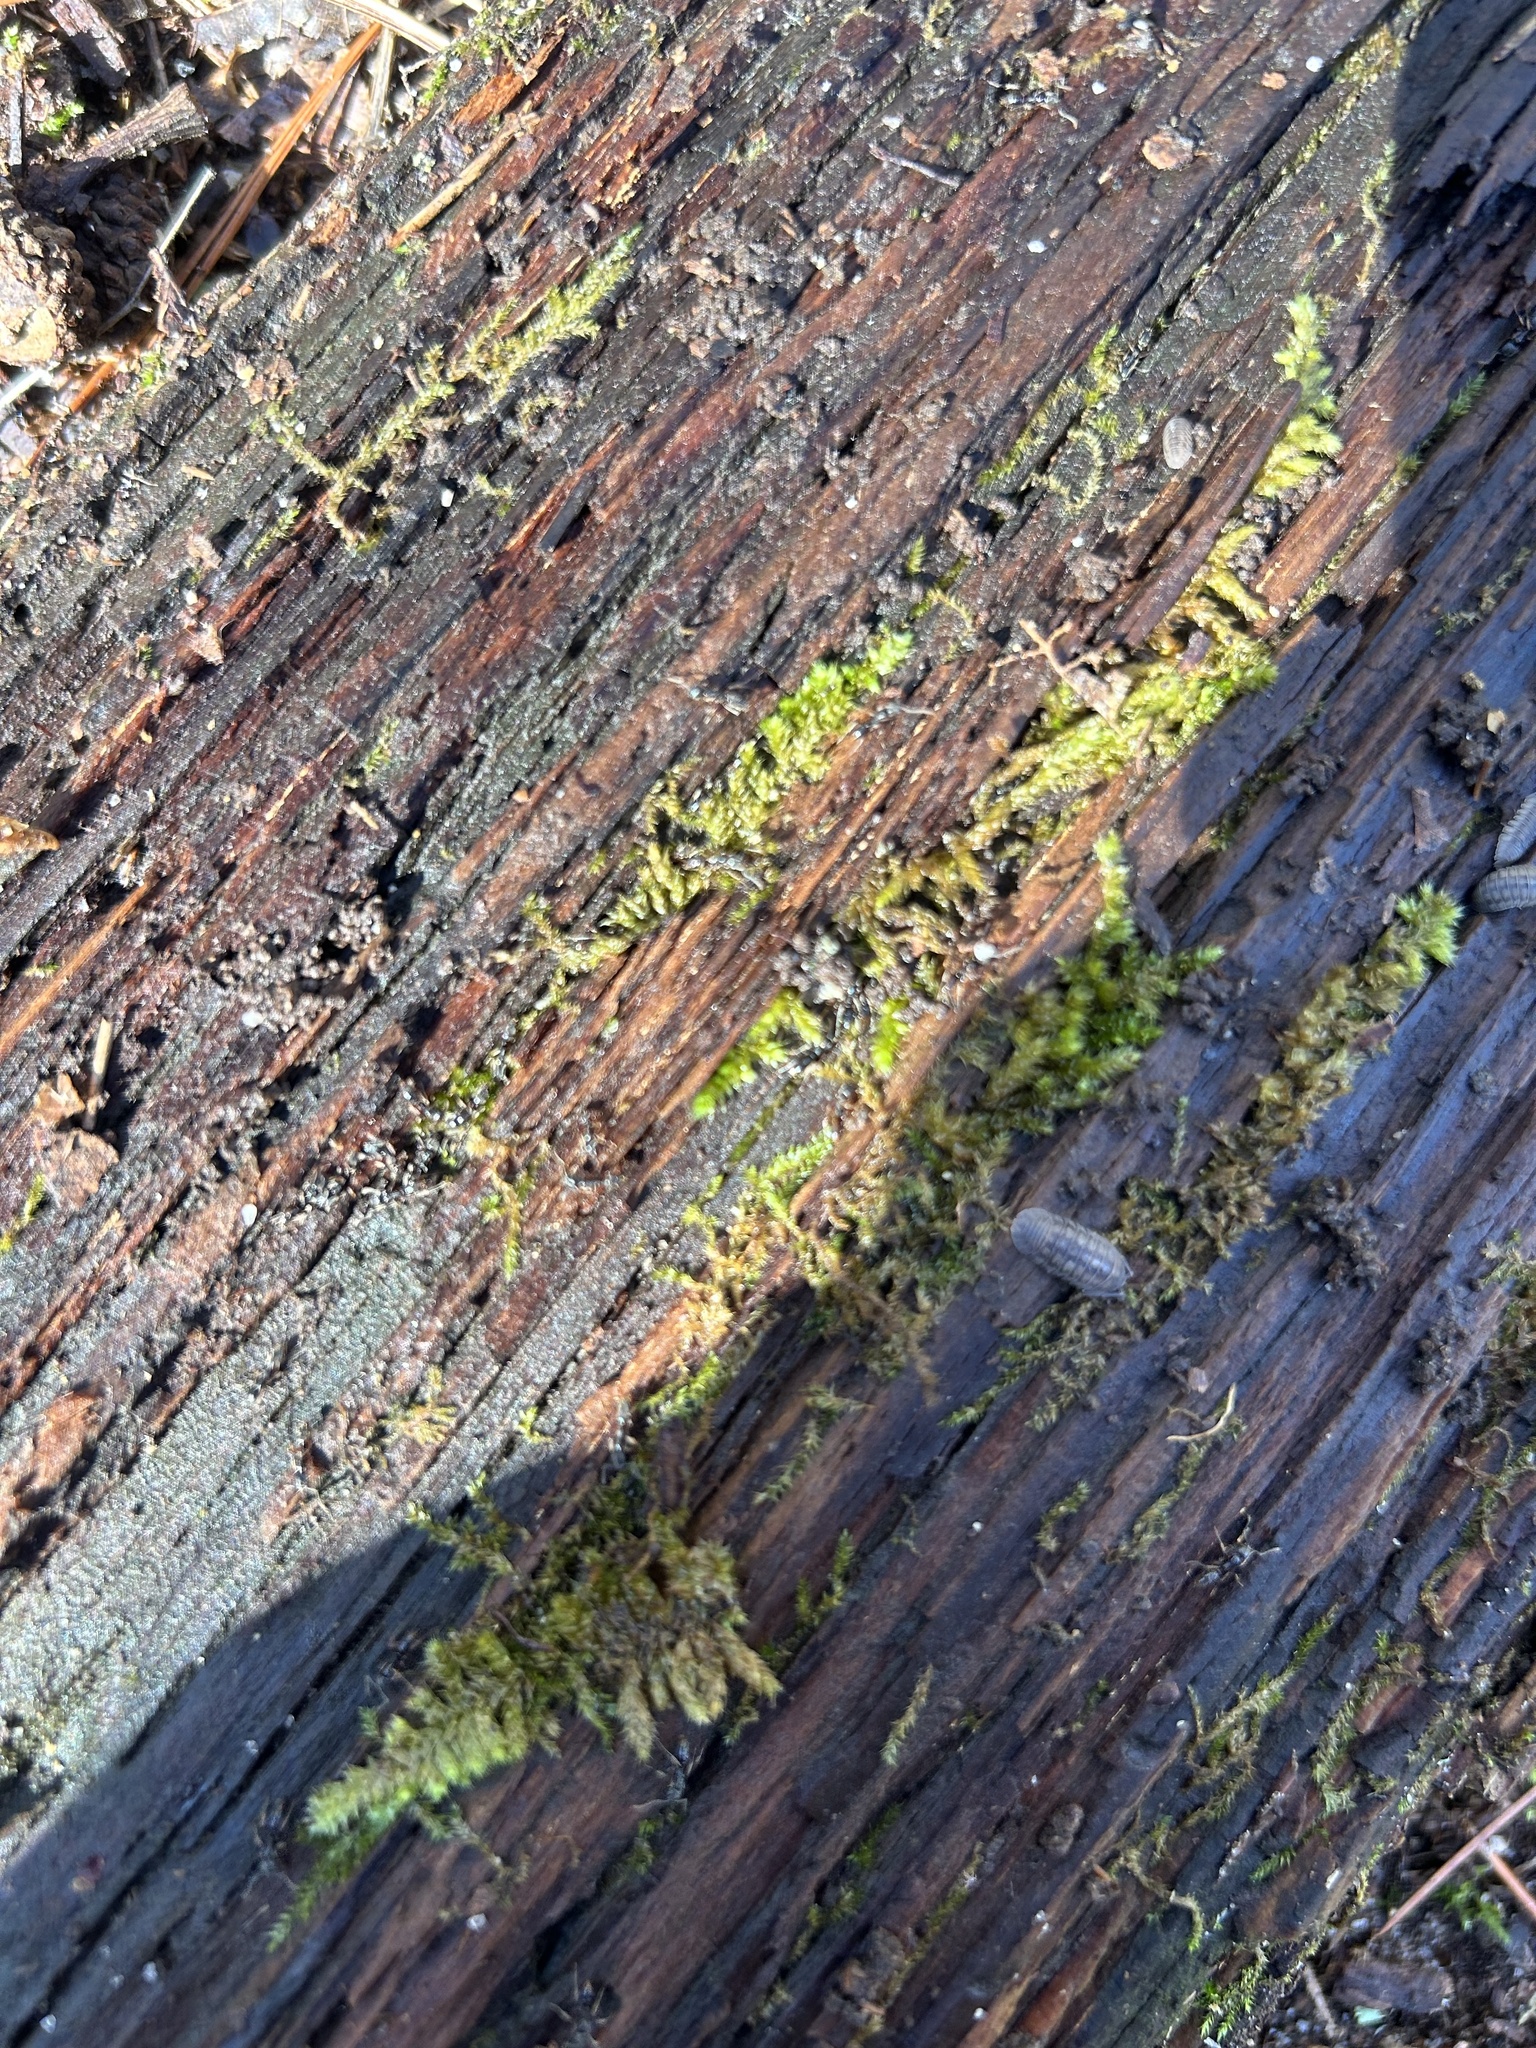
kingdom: Animalia
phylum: Arthropoda
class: Malacostraca
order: Isopoda
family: Armadillidiidae
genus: Armadillidium
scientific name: Armadillidium nasatum
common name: Isopod
